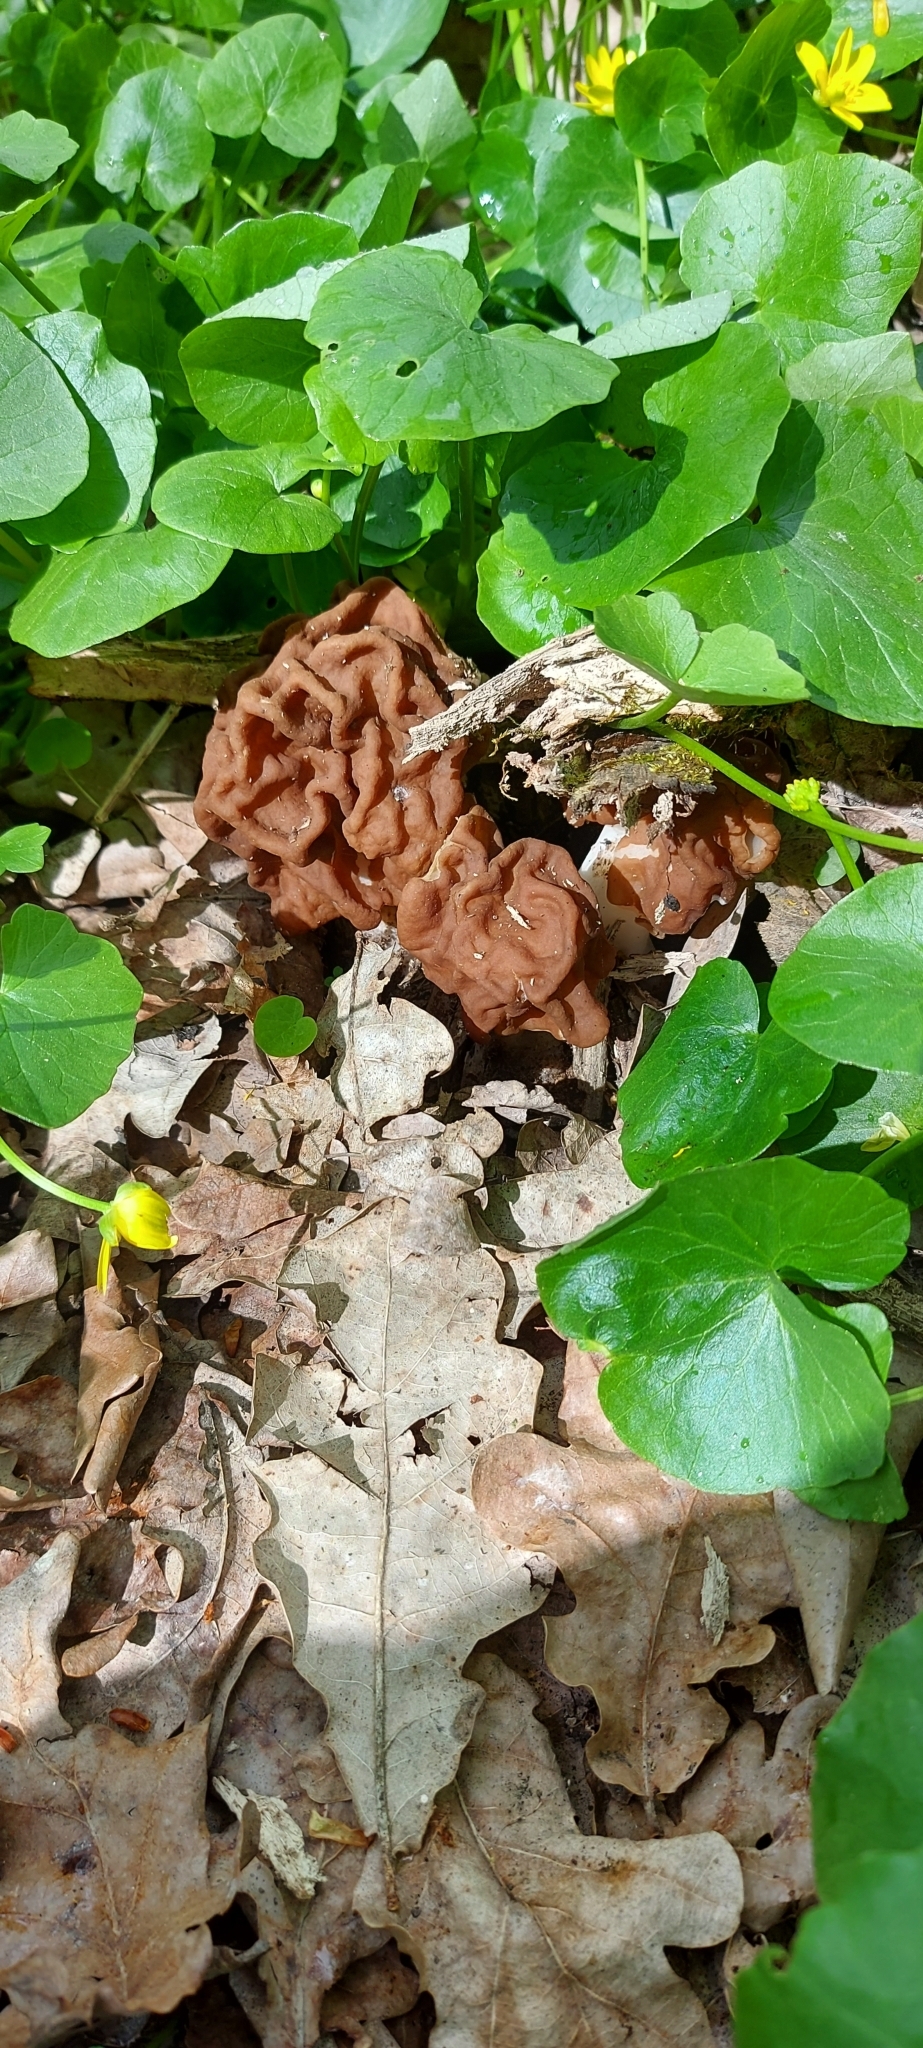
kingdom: Fungi
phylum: Ascomycota
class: Pezizomycetes
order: Pezizales
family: Discinaceae
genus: Gyromitra
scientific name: Gyromitra gigas
